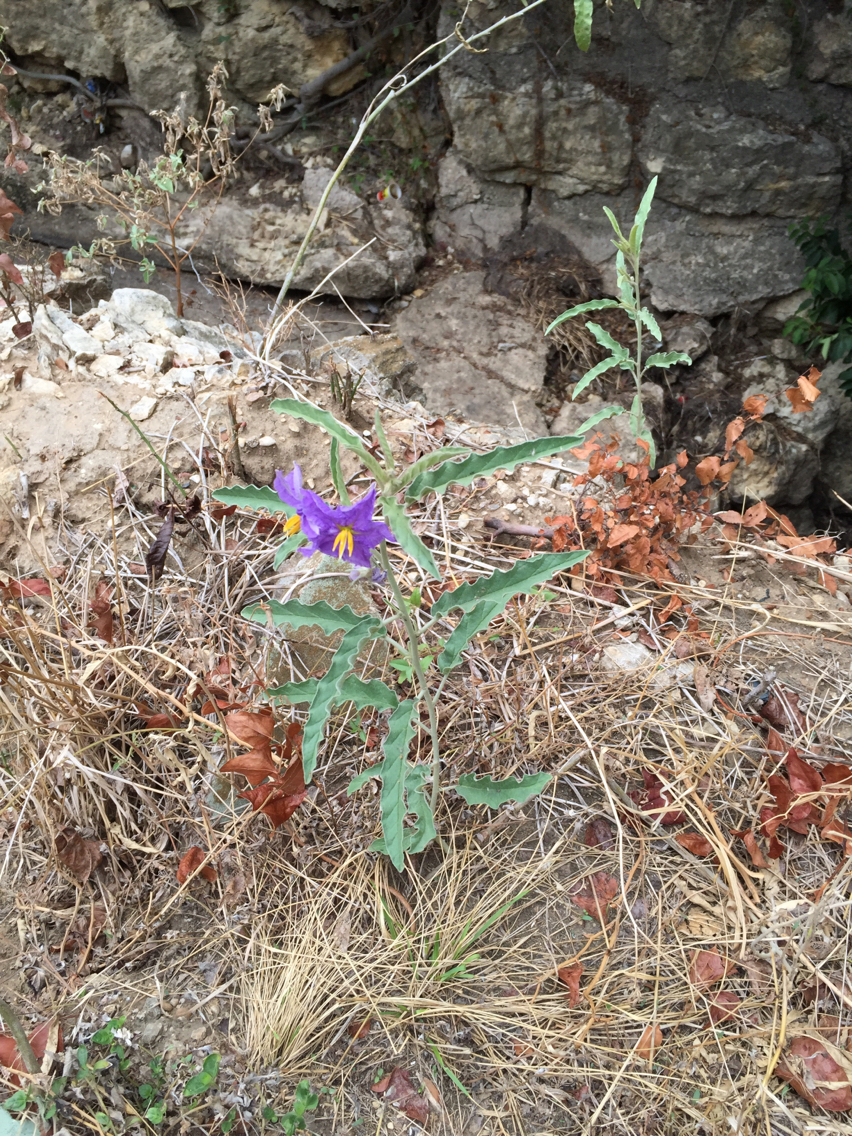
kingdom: Plantae
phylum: Tracheophyta
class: Magnoliopsida
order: Solanales
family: Solanaceae
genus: Solanum
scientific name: Solanum elaeagnifolium
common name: Silverleaf nightshade
